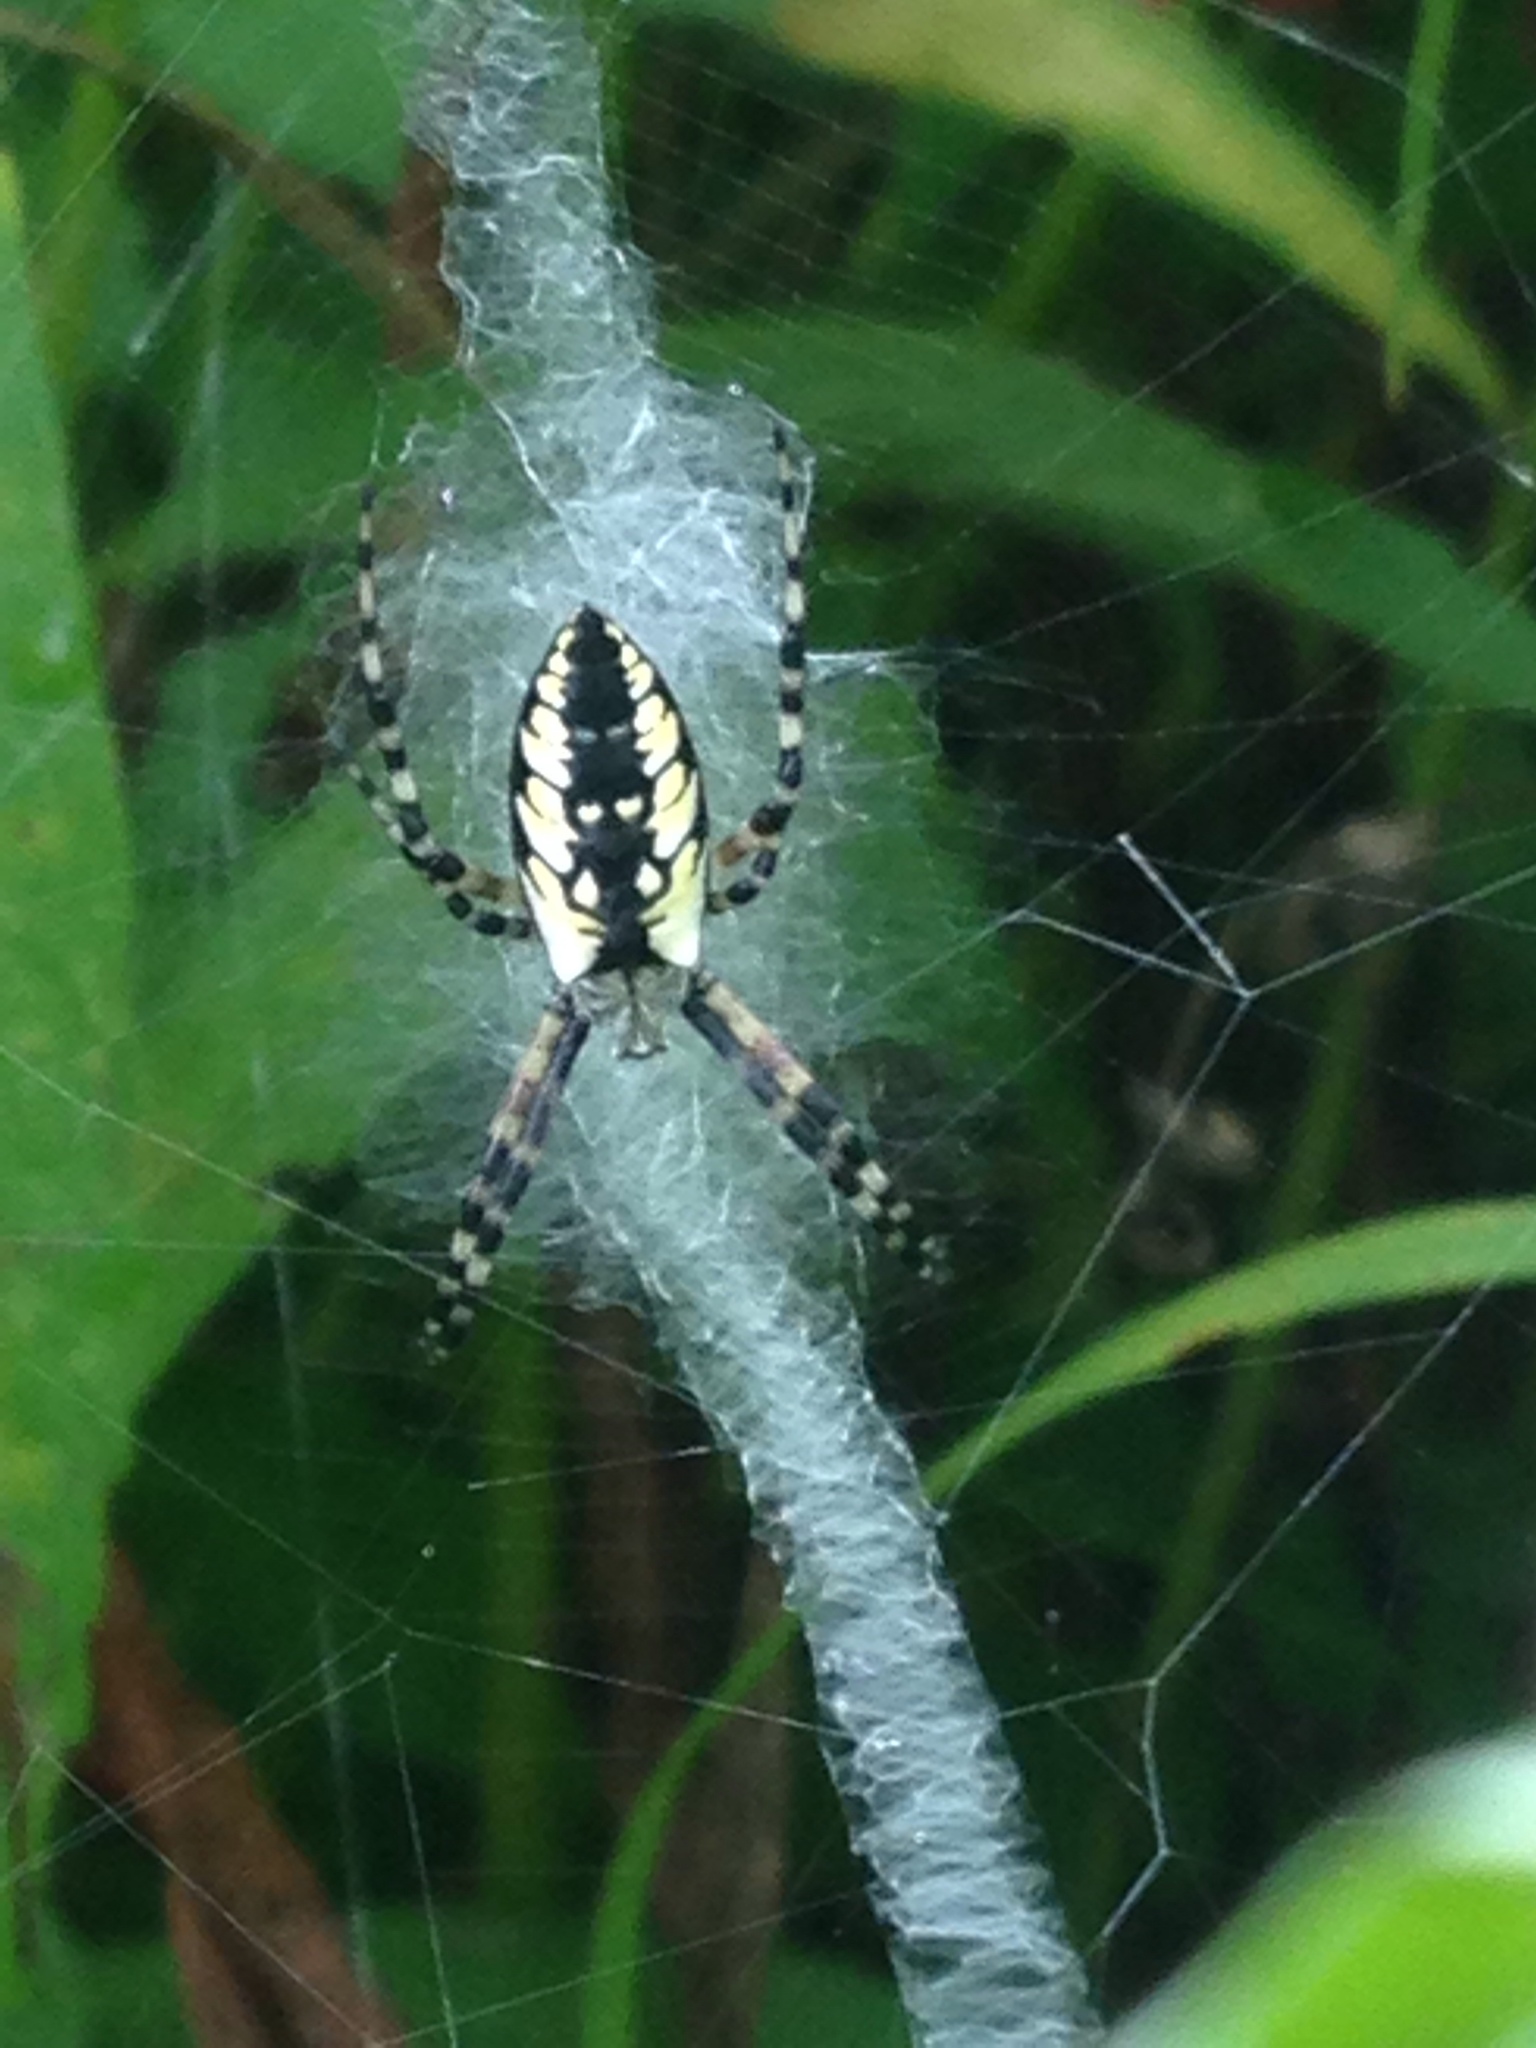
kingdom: Animalia
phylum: Arthropoda
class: Arachnida
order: Araneae
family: Araneidae
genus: Argiope
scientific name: Argiope aurantia
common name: Orb weavers
